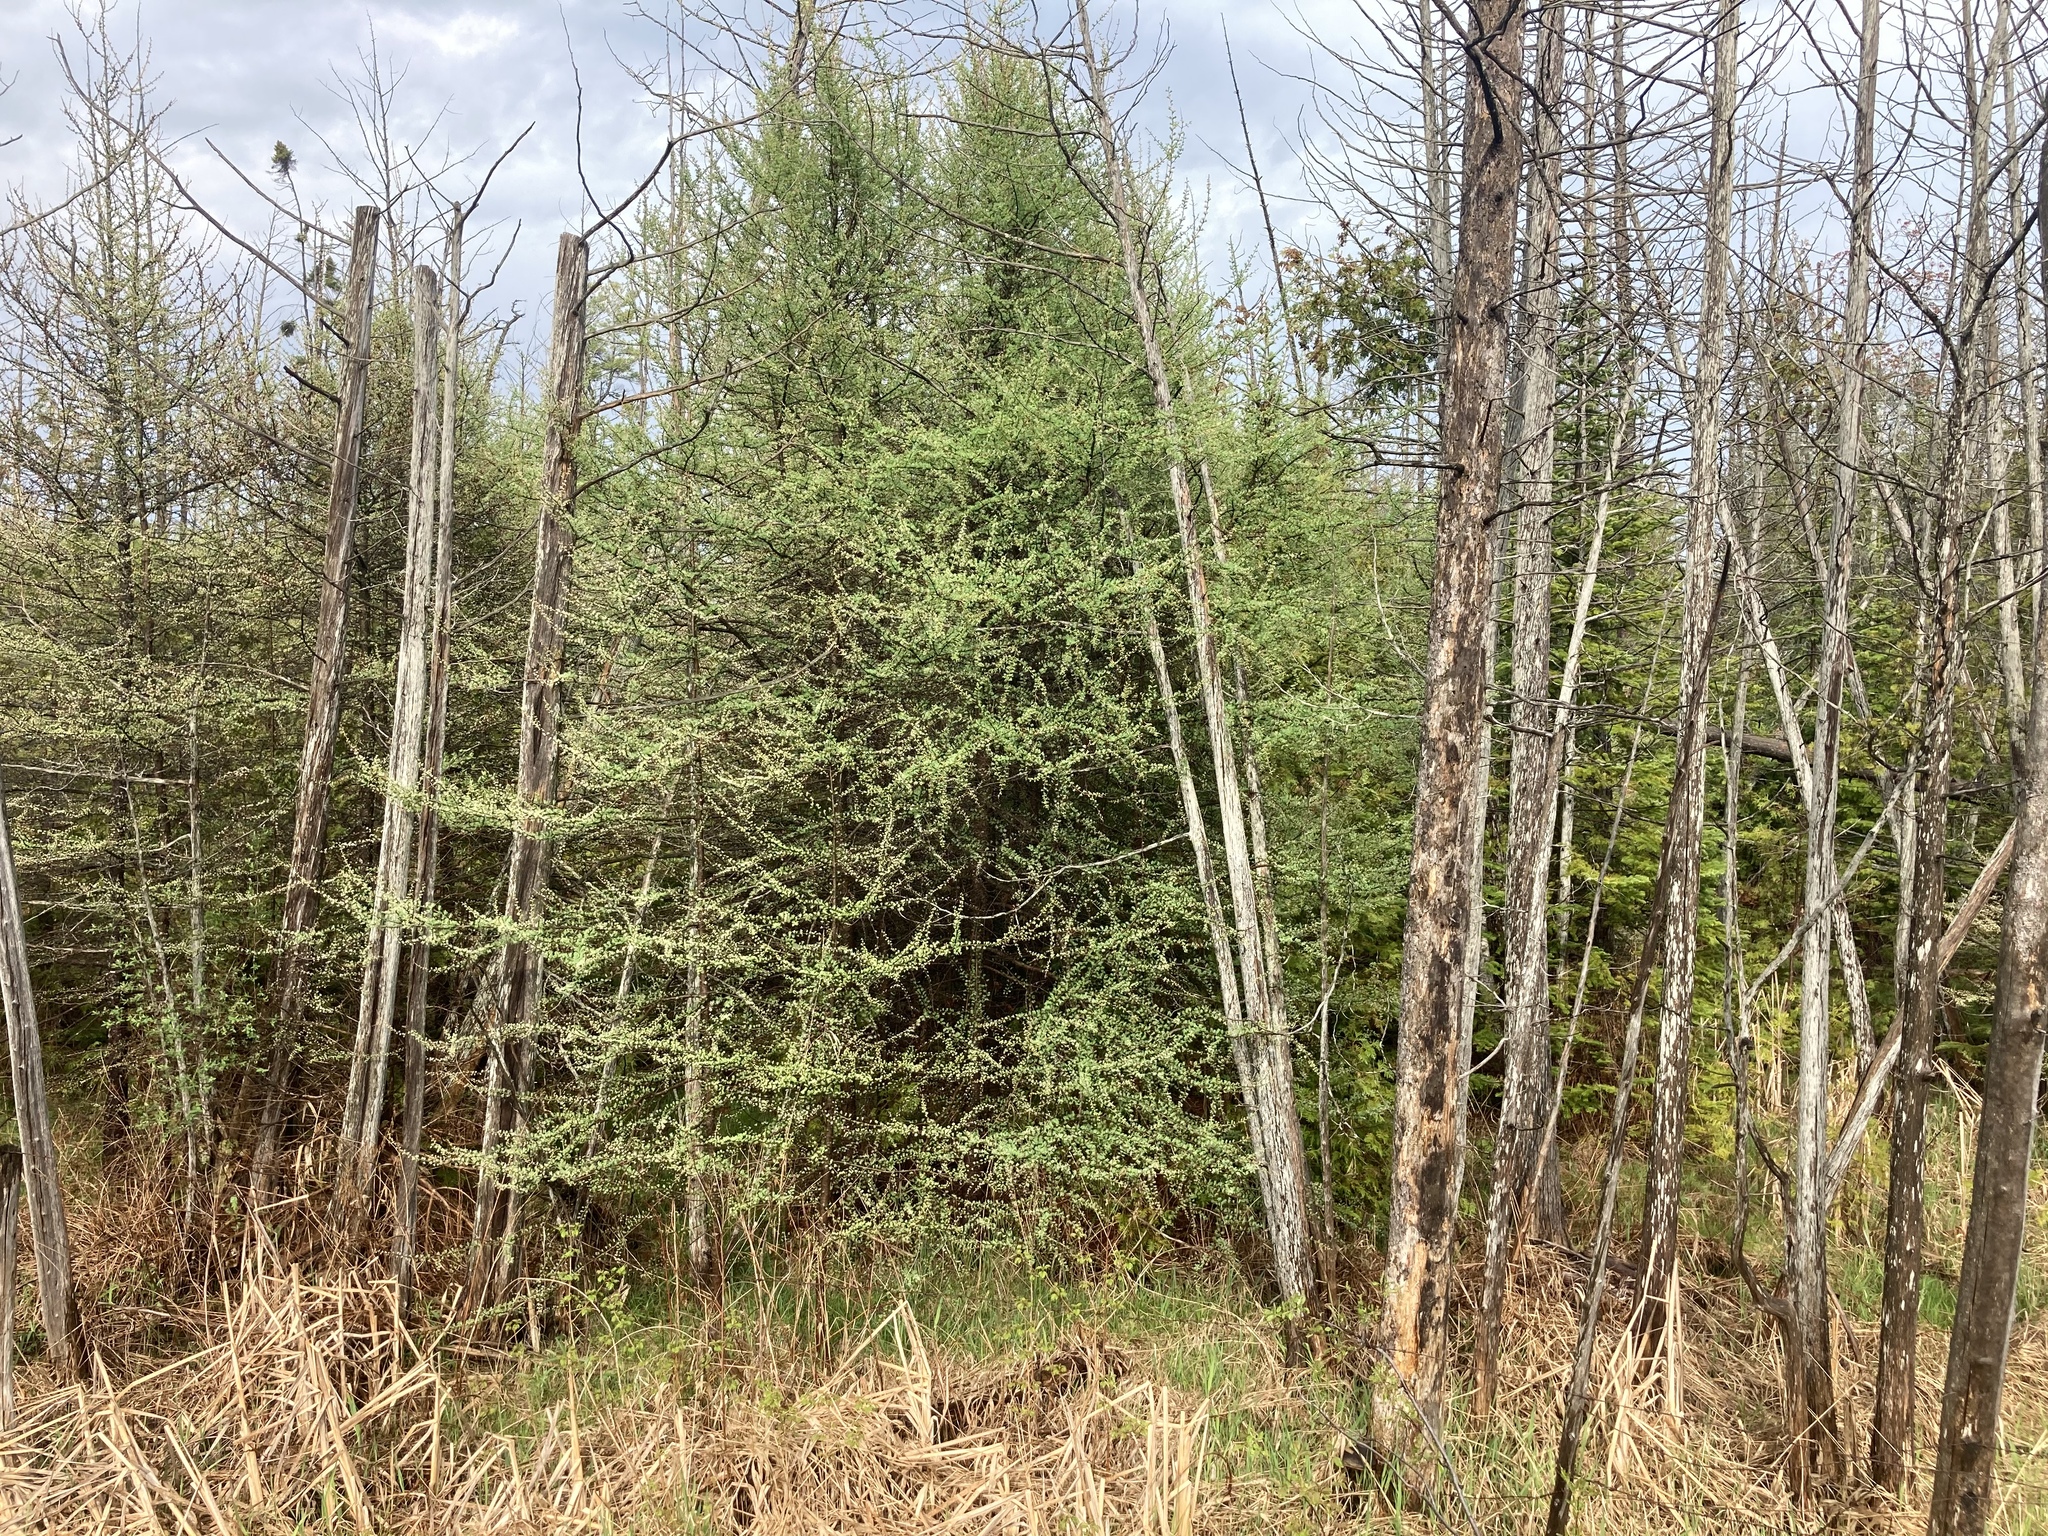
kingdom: Plantae
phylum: Tracheophyta
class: Pinopsida
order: Pinales
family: Pinaceae
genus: Larix
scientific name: Larix laricina
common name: American larch
